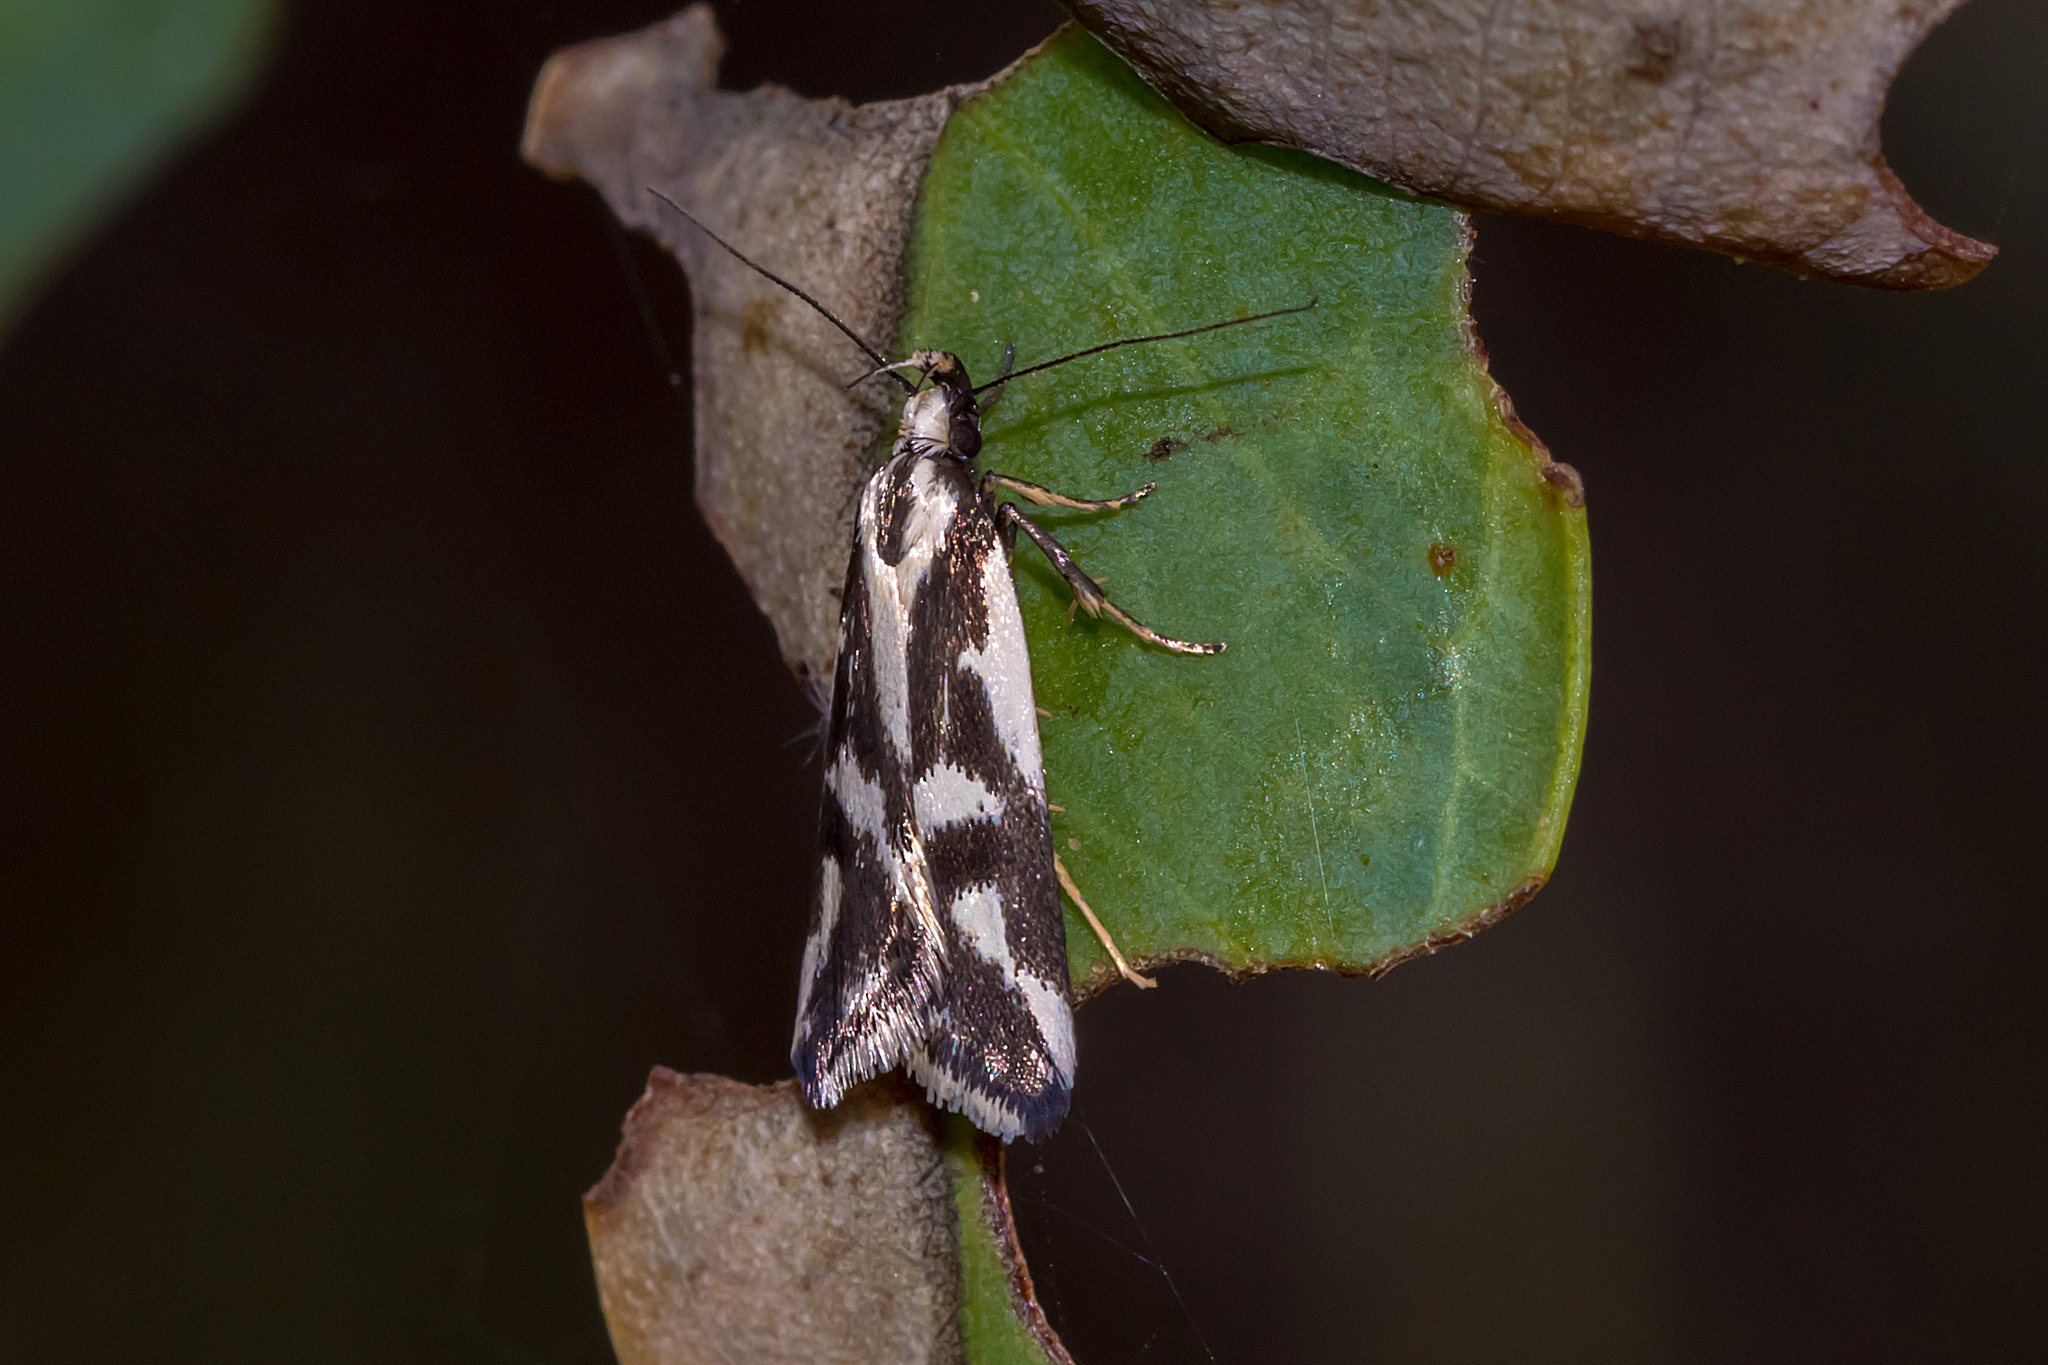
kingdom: Animalia
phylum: Arthropoda
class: Insecta
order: Lepidoptera
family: Oecophoridae
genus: Epithymema
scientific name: Epithymema incomposita
